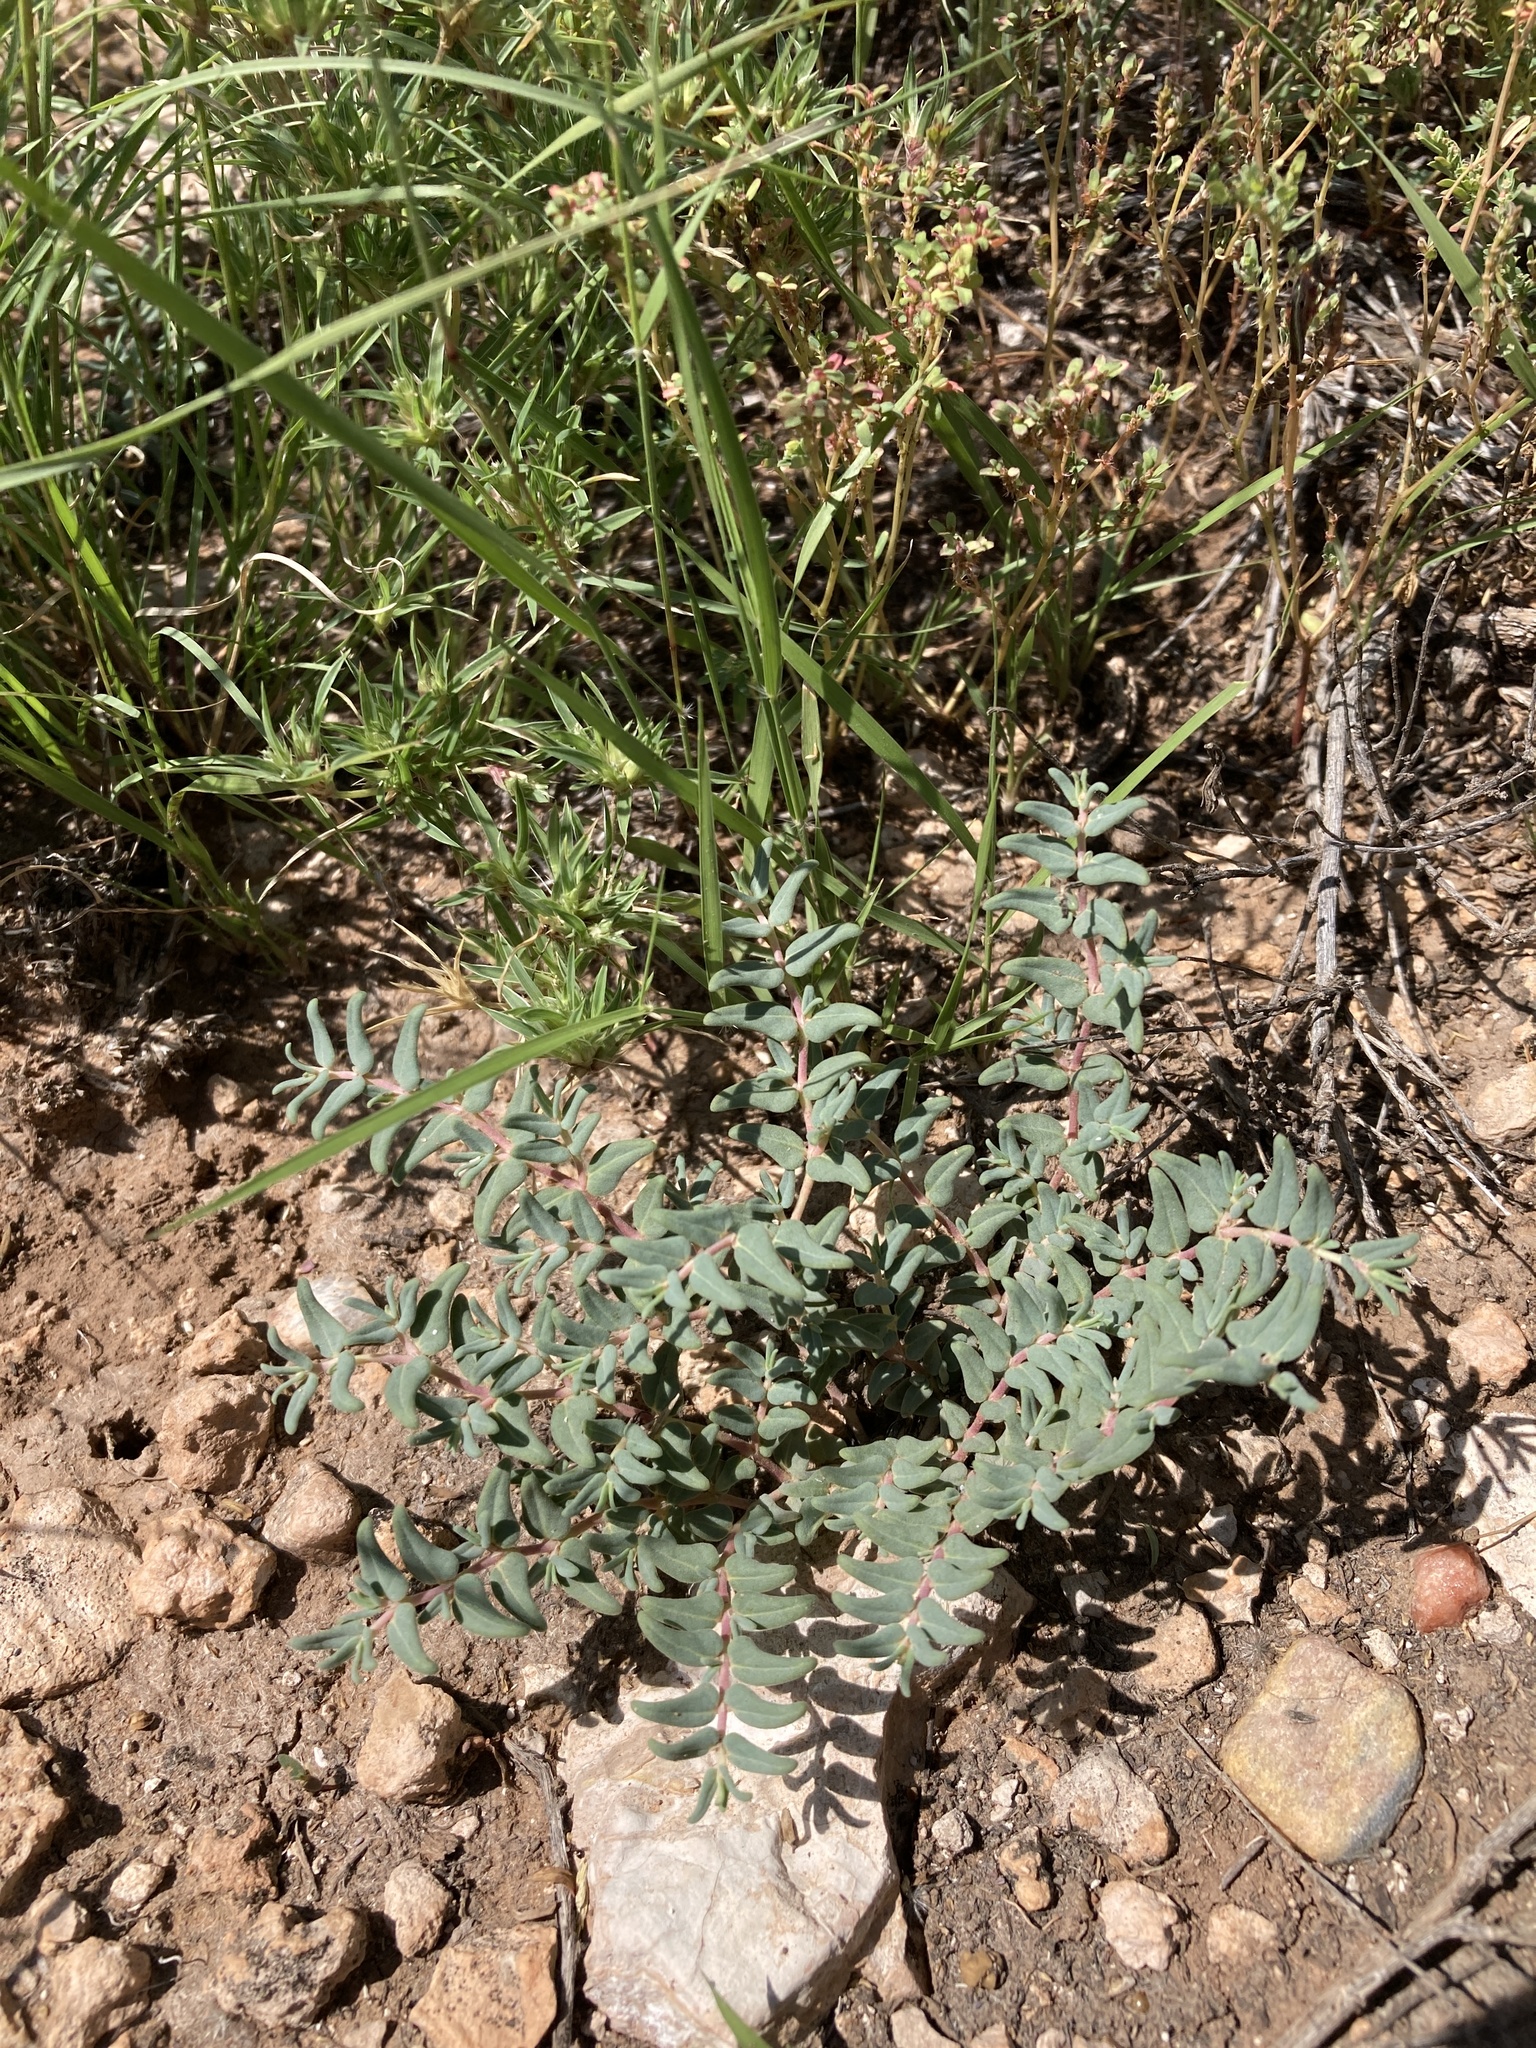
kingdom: Plantae
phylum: Tracheophyta
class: Magnoliopsida
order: Malpighiales
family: Euphorbiaceae
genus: Euphorbia
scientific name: Euphorbia lata
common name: Hoary euphorbia
